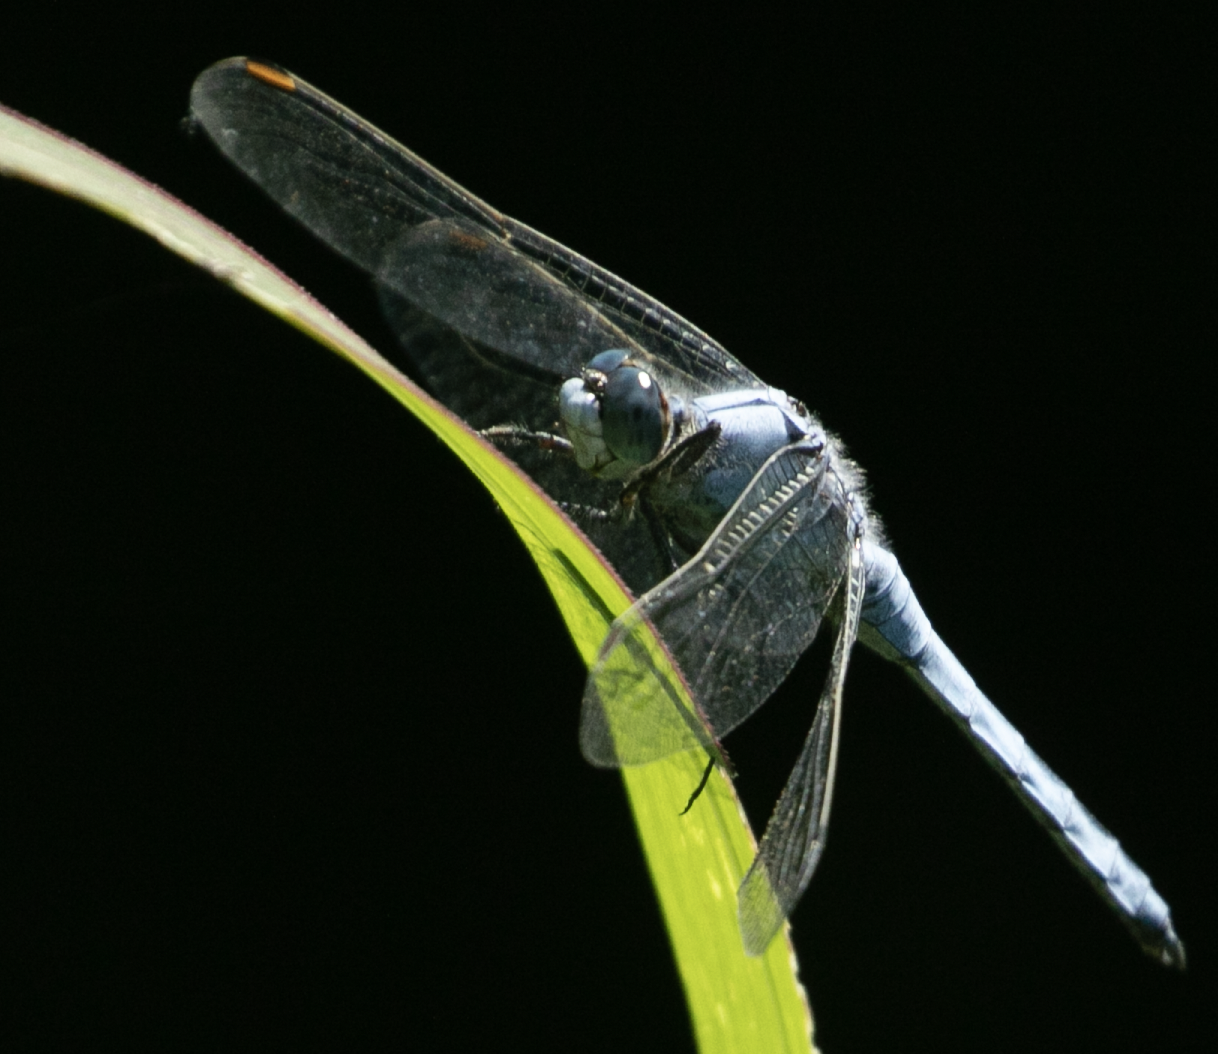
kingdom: Animalia
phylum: Arthropoda
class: Insecta
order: Odonata
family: Libellulidae
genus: Orthetrum
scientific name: Orthetrum brunneum
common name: Southern skimmer
